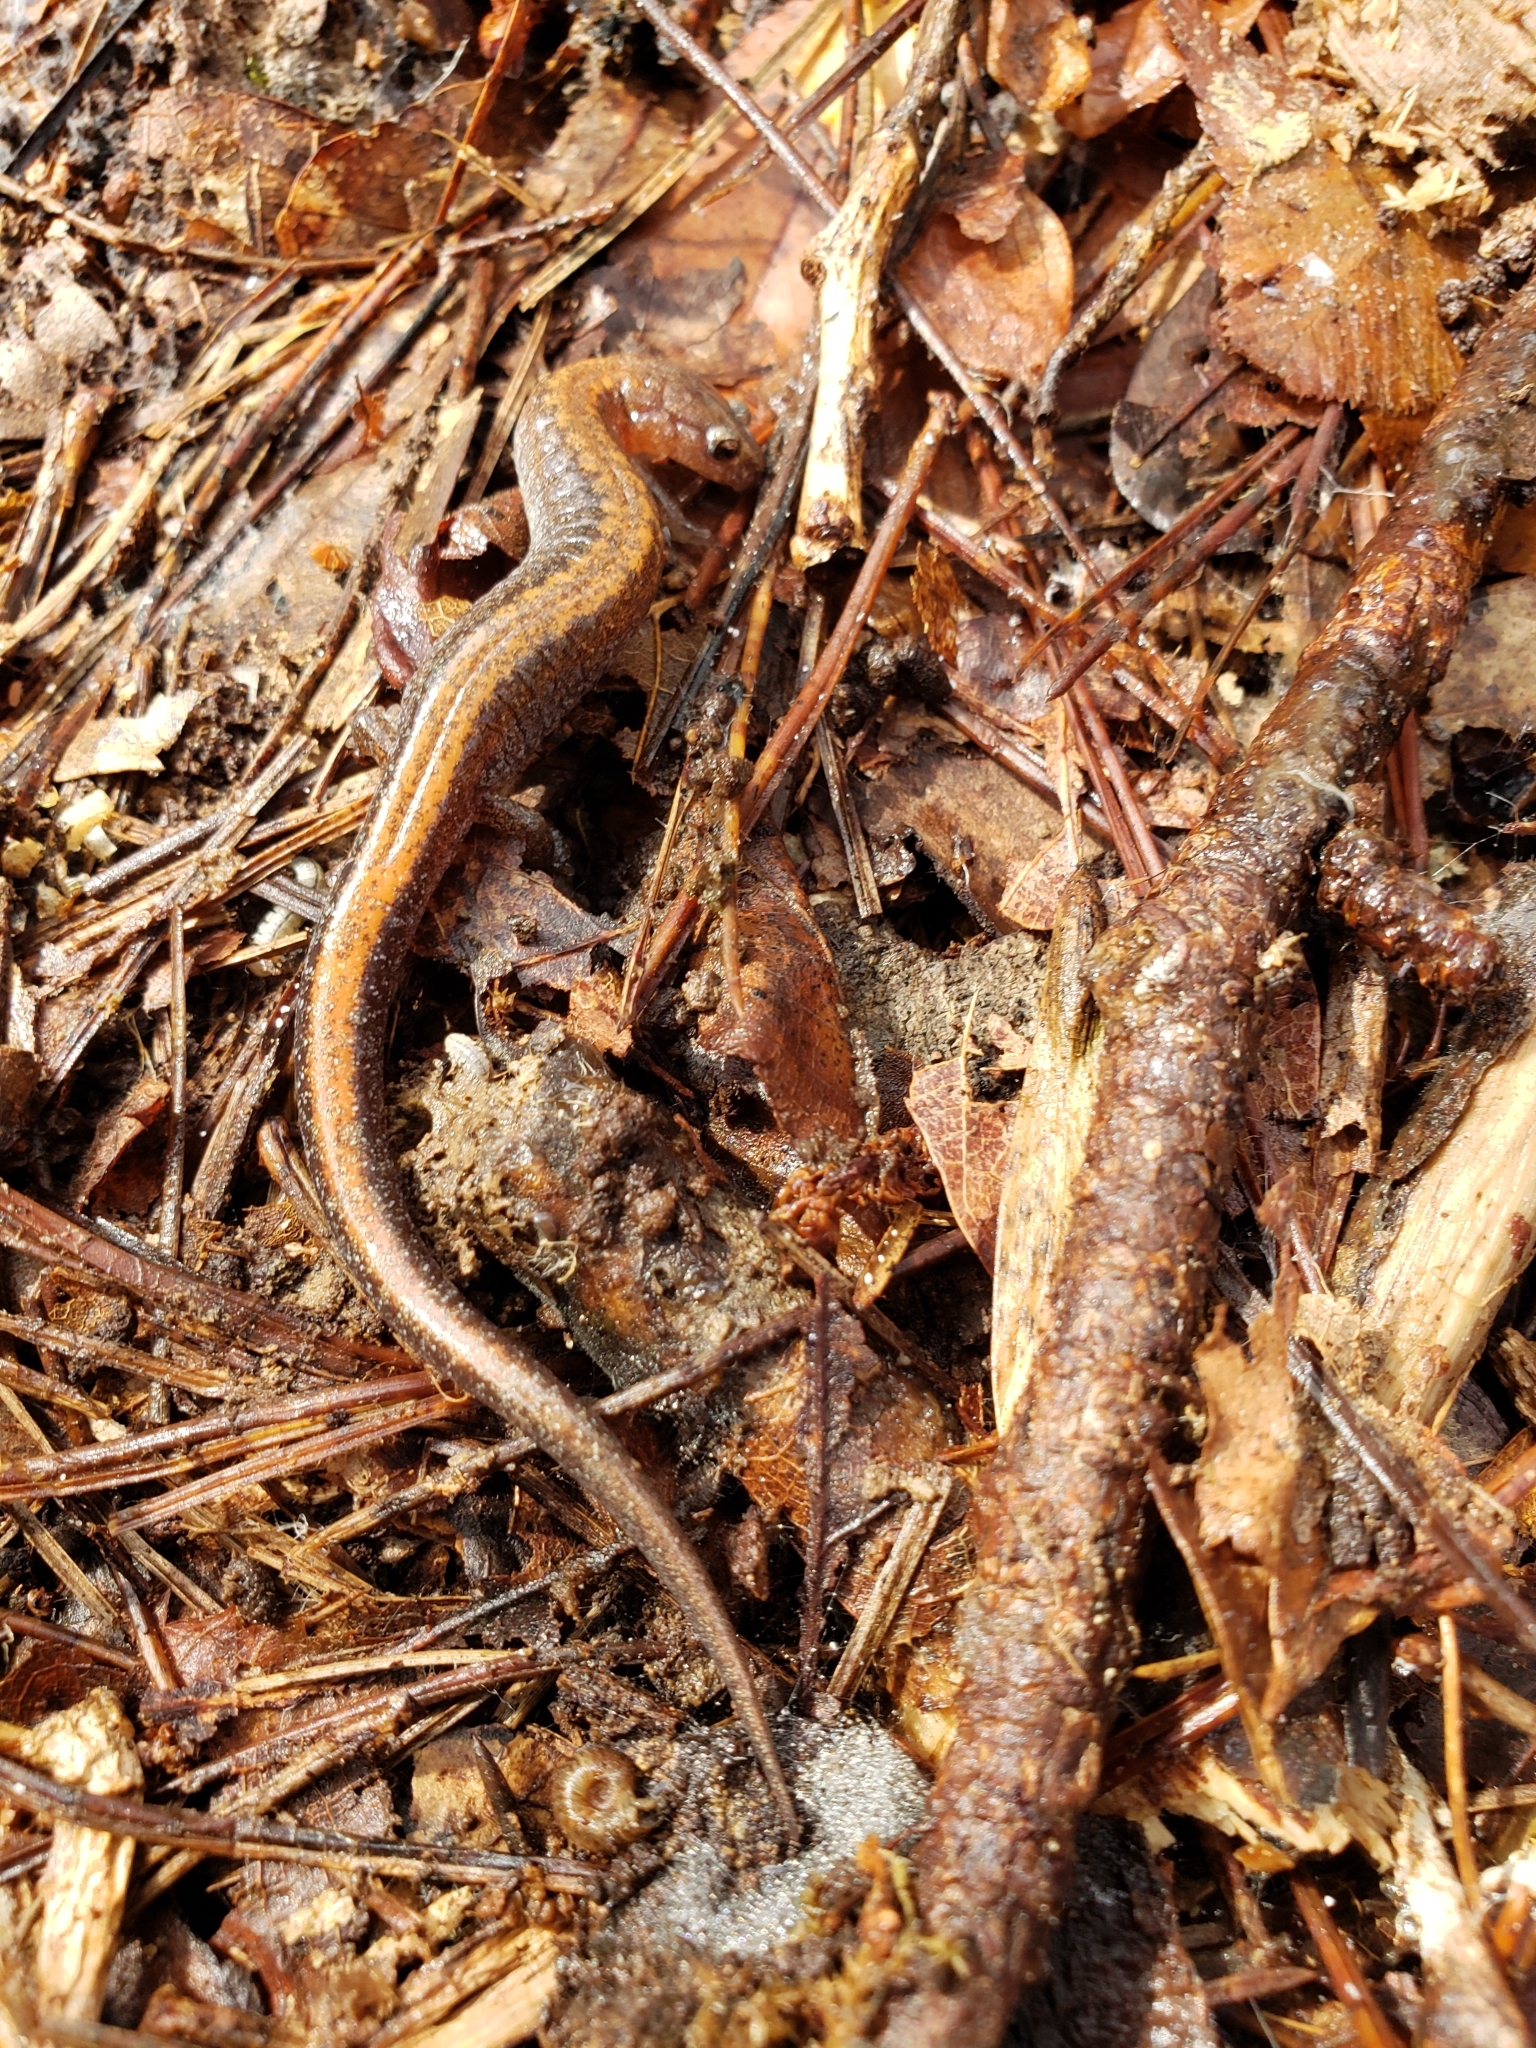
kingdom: Animalia
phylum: Chordata
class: Amphibia
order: Caudata
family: Plethodontidae
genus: Plethodon
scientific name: Plethodon serratus
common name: Southern red-backed salamander
